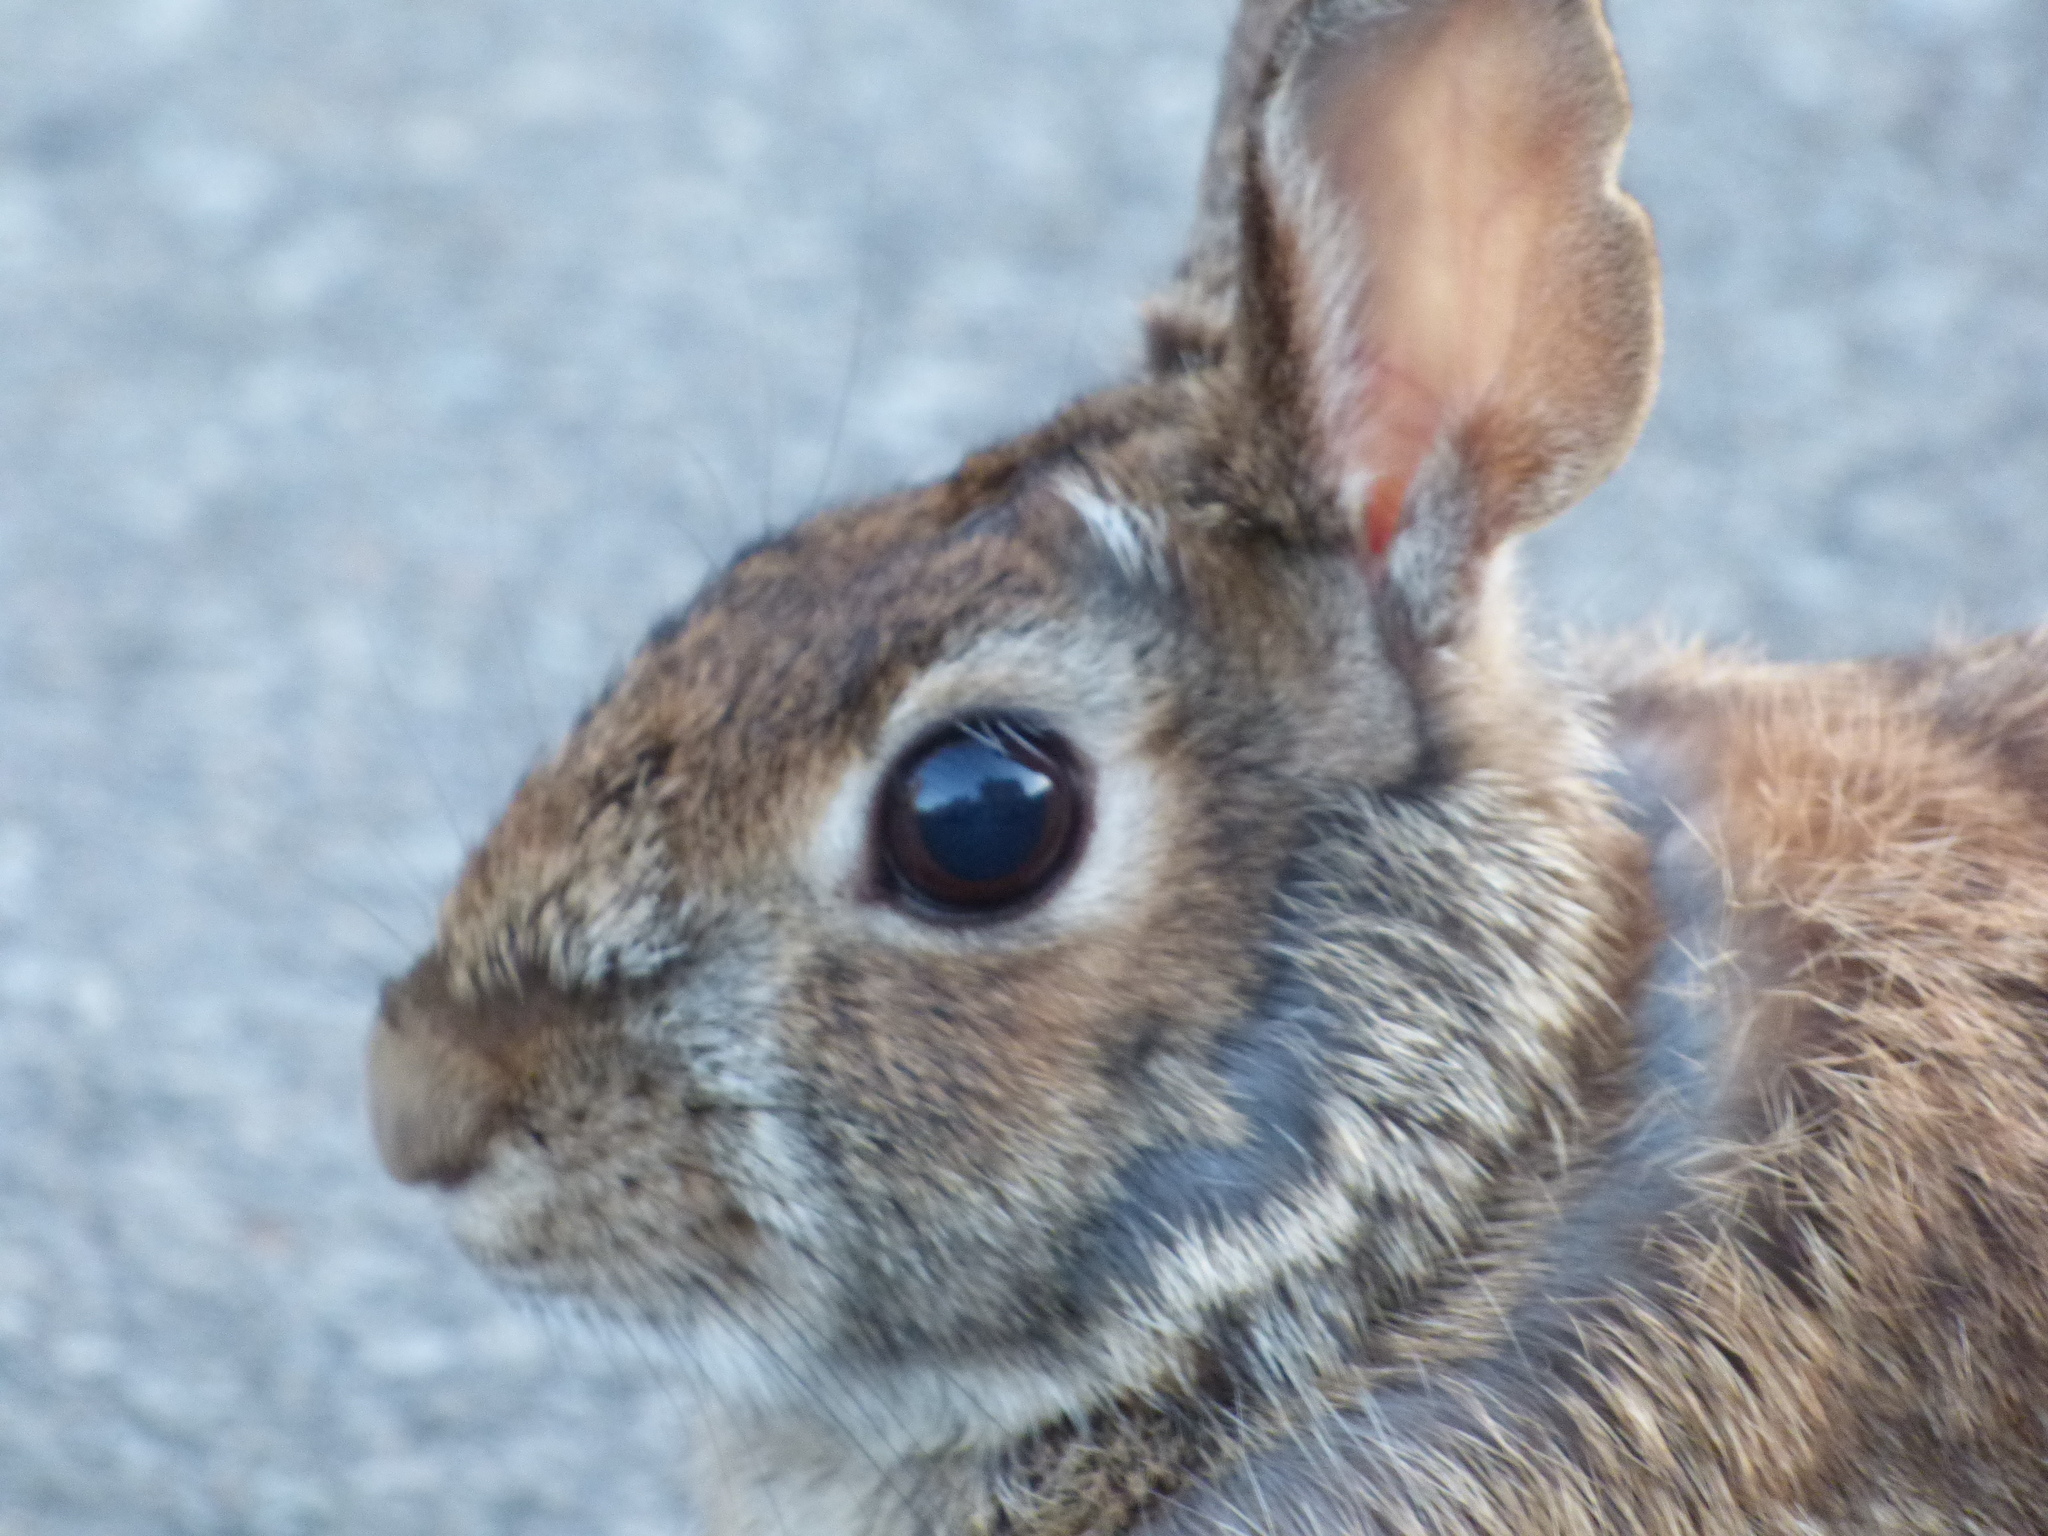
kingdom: Animalia
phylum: Chordata
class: Mammalia
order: Lagomorpha
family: Leporidae
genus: Sylvilagus
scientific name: Sylvilagus floridanus
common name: Eastern cottontail
